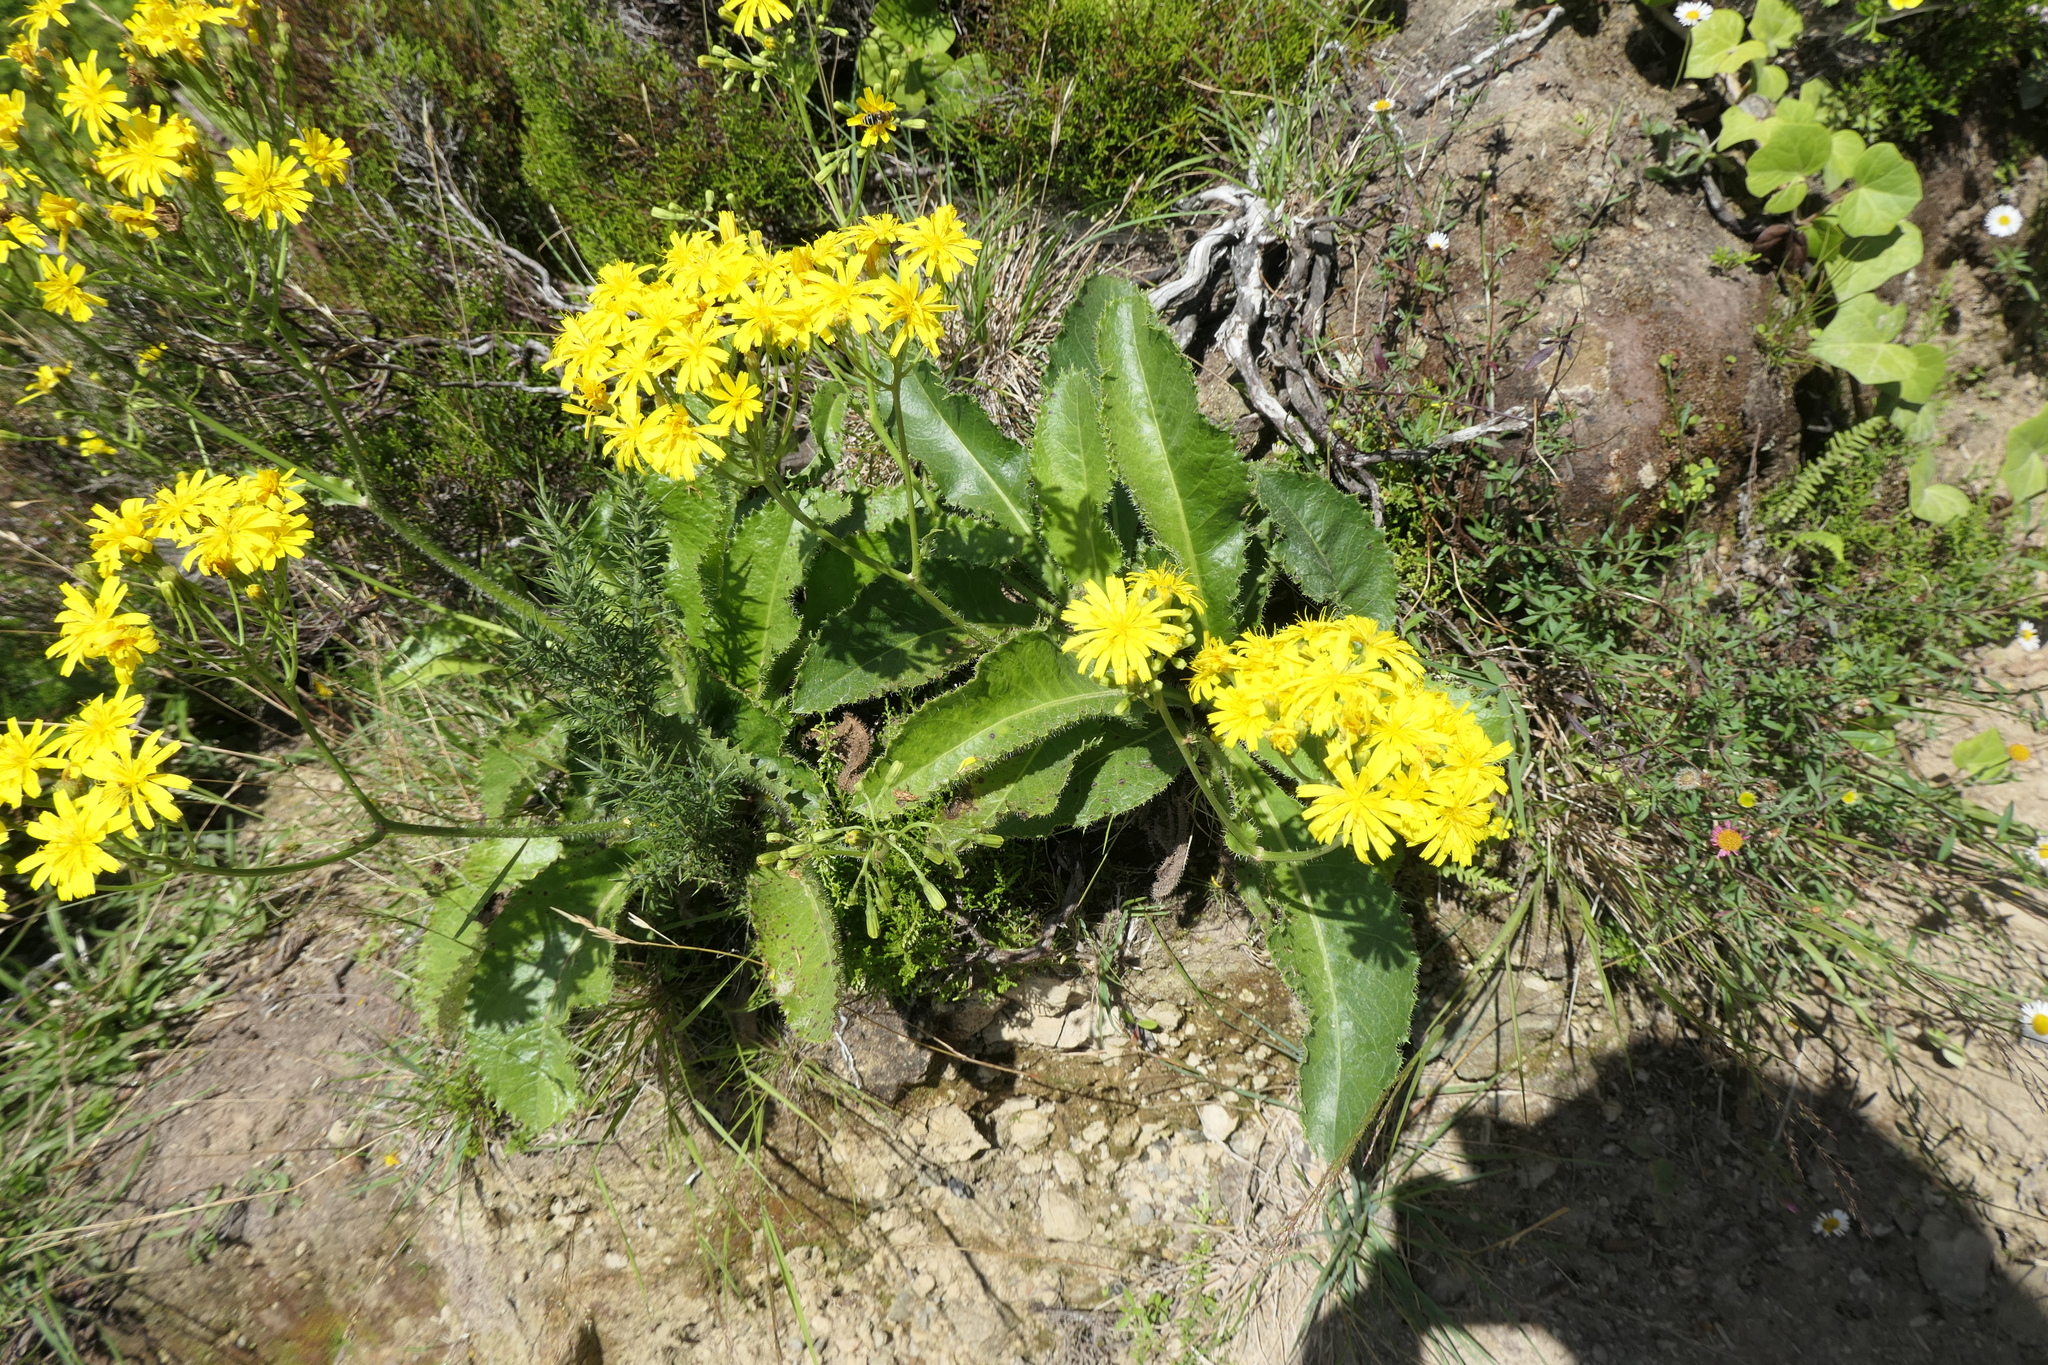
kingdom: Plantae
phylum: Tracheophyta
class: Magnoliopsida
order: Asterales
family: Asteraceae
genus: Leontodon
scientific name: Leontodon rigens
